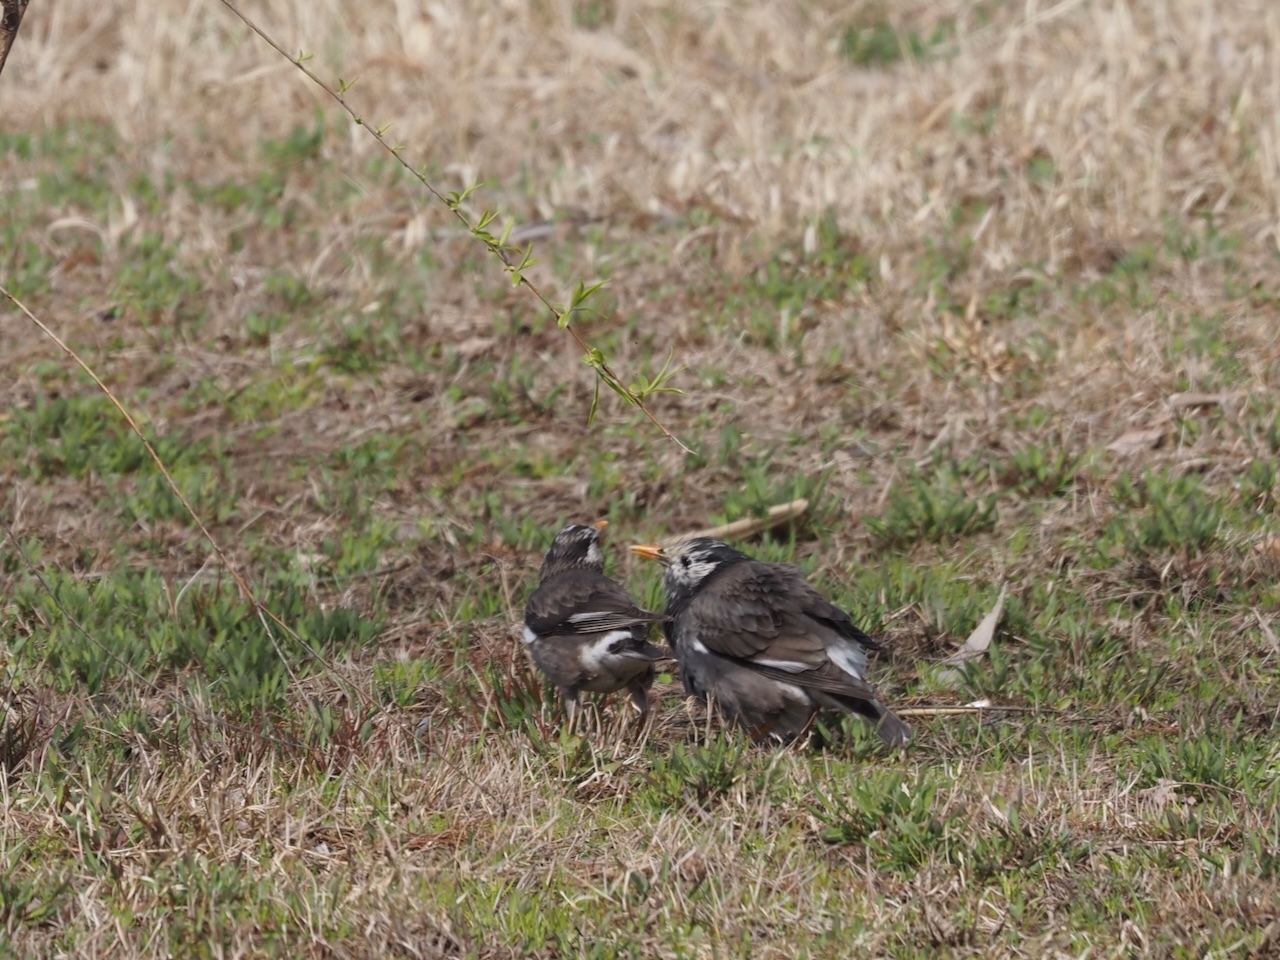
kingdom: Animalia
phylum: Chordata
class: Aves
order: Passeriformes
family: Sturnidae
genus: Spodiopsar
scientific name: Spodiopsar cineraceus
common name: White-cheeked starling
